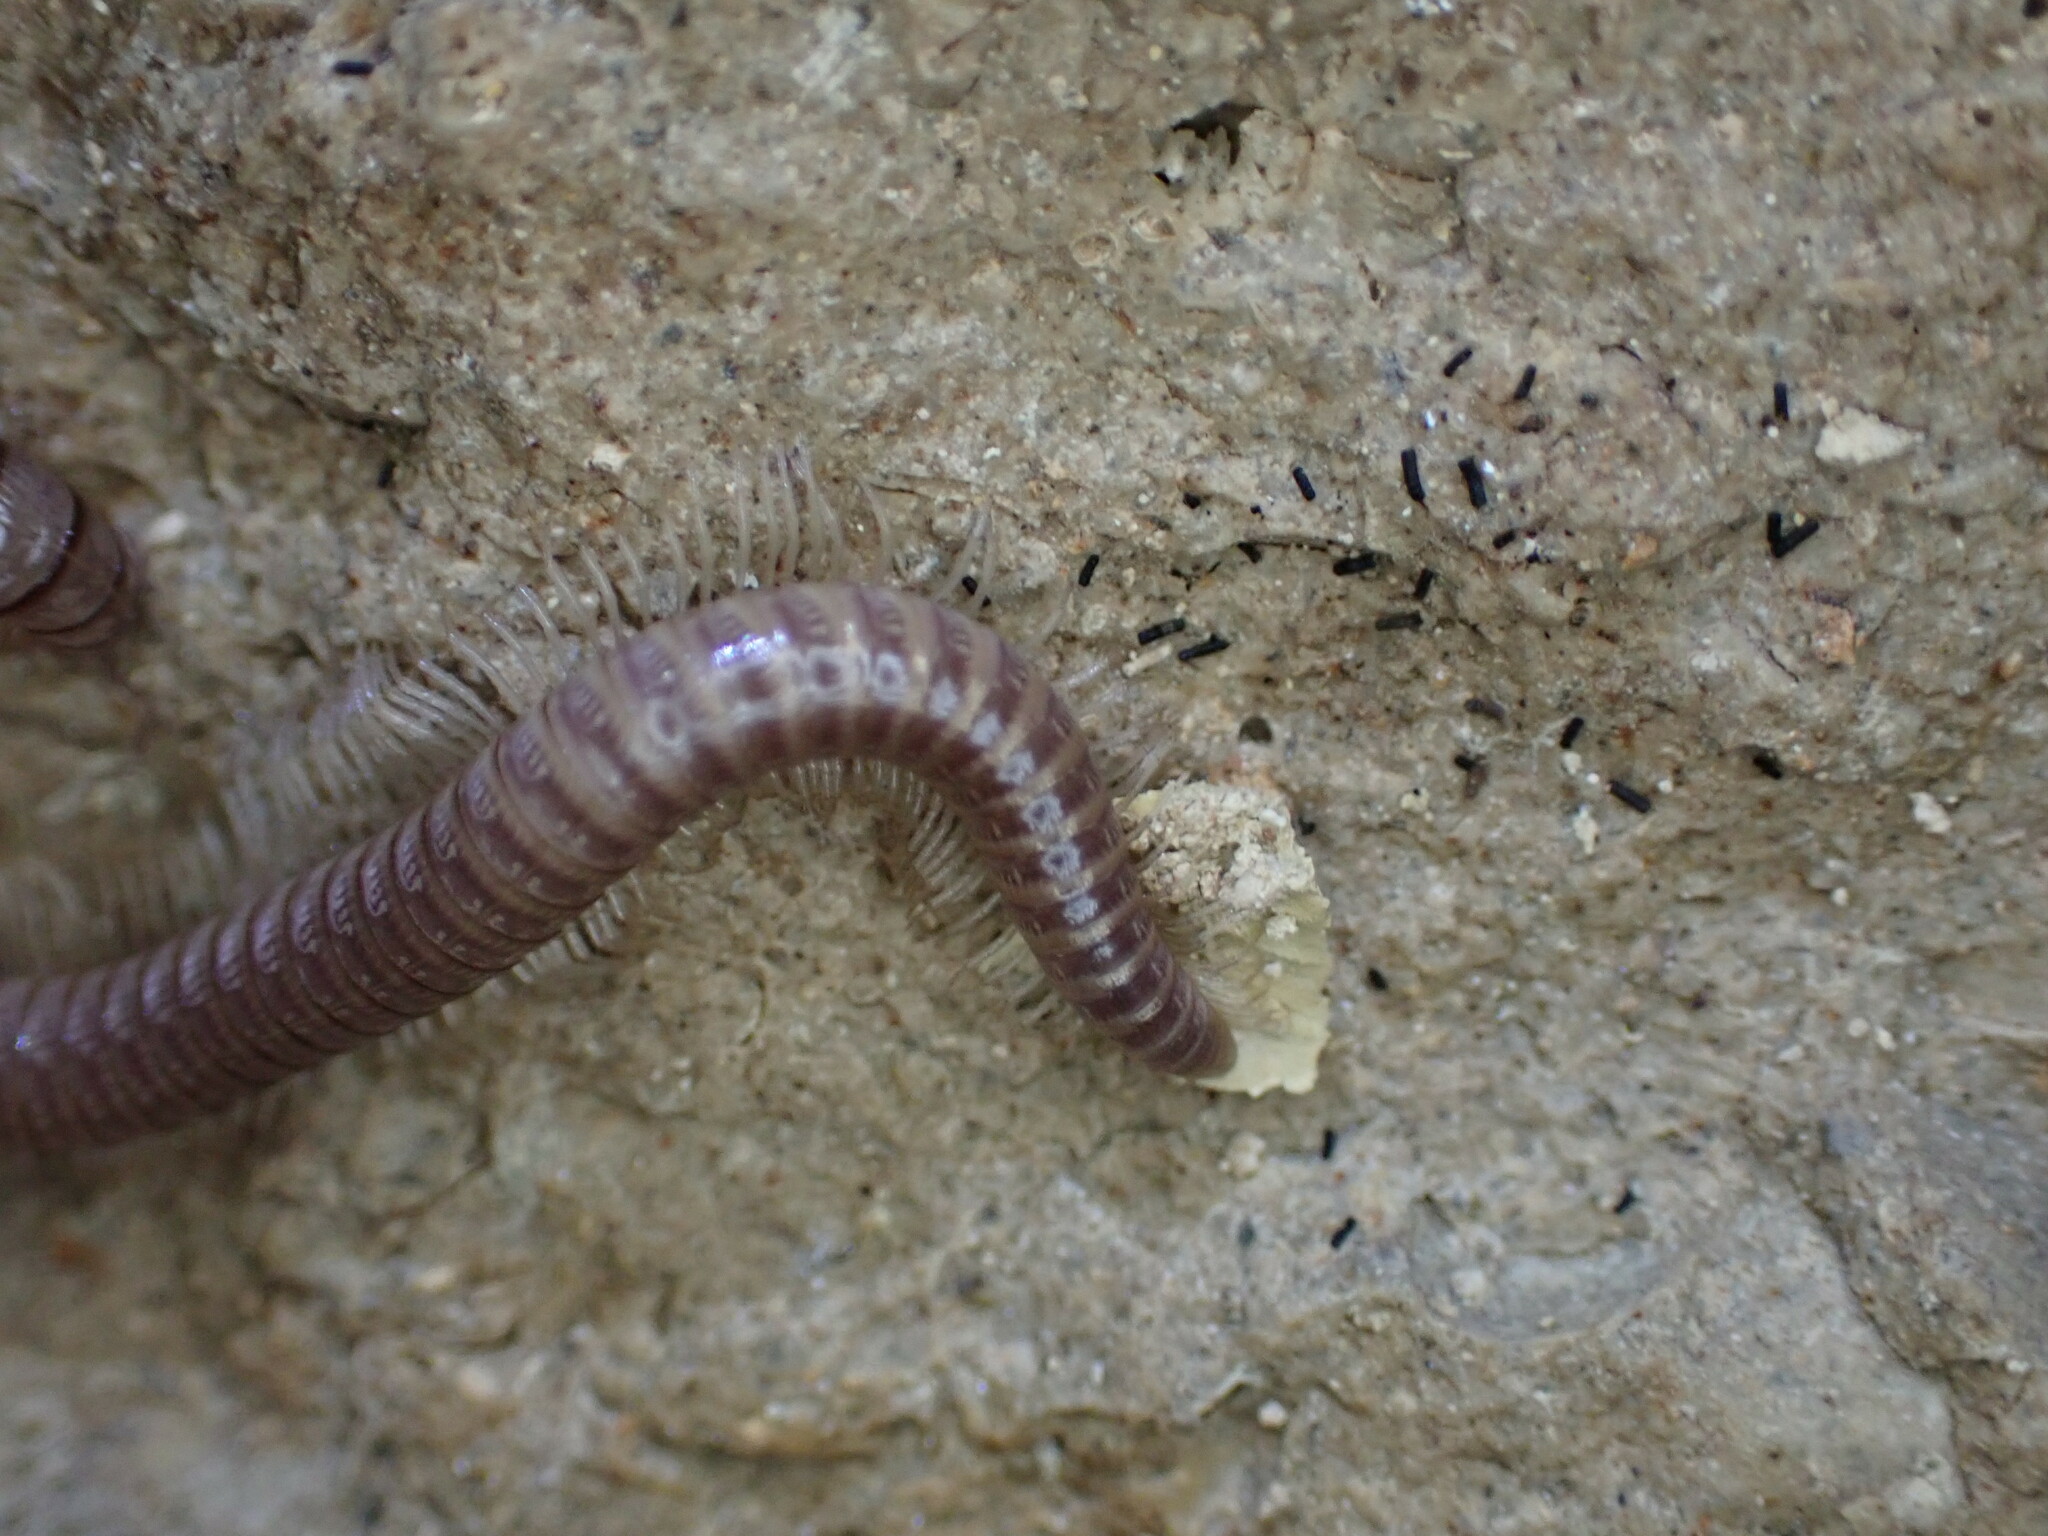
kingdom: Animalia
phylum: Arthropoda
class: Diplopoda
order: Callipodida
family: Callipodidae
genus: Callipus
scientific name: Callipus foetidissimus
